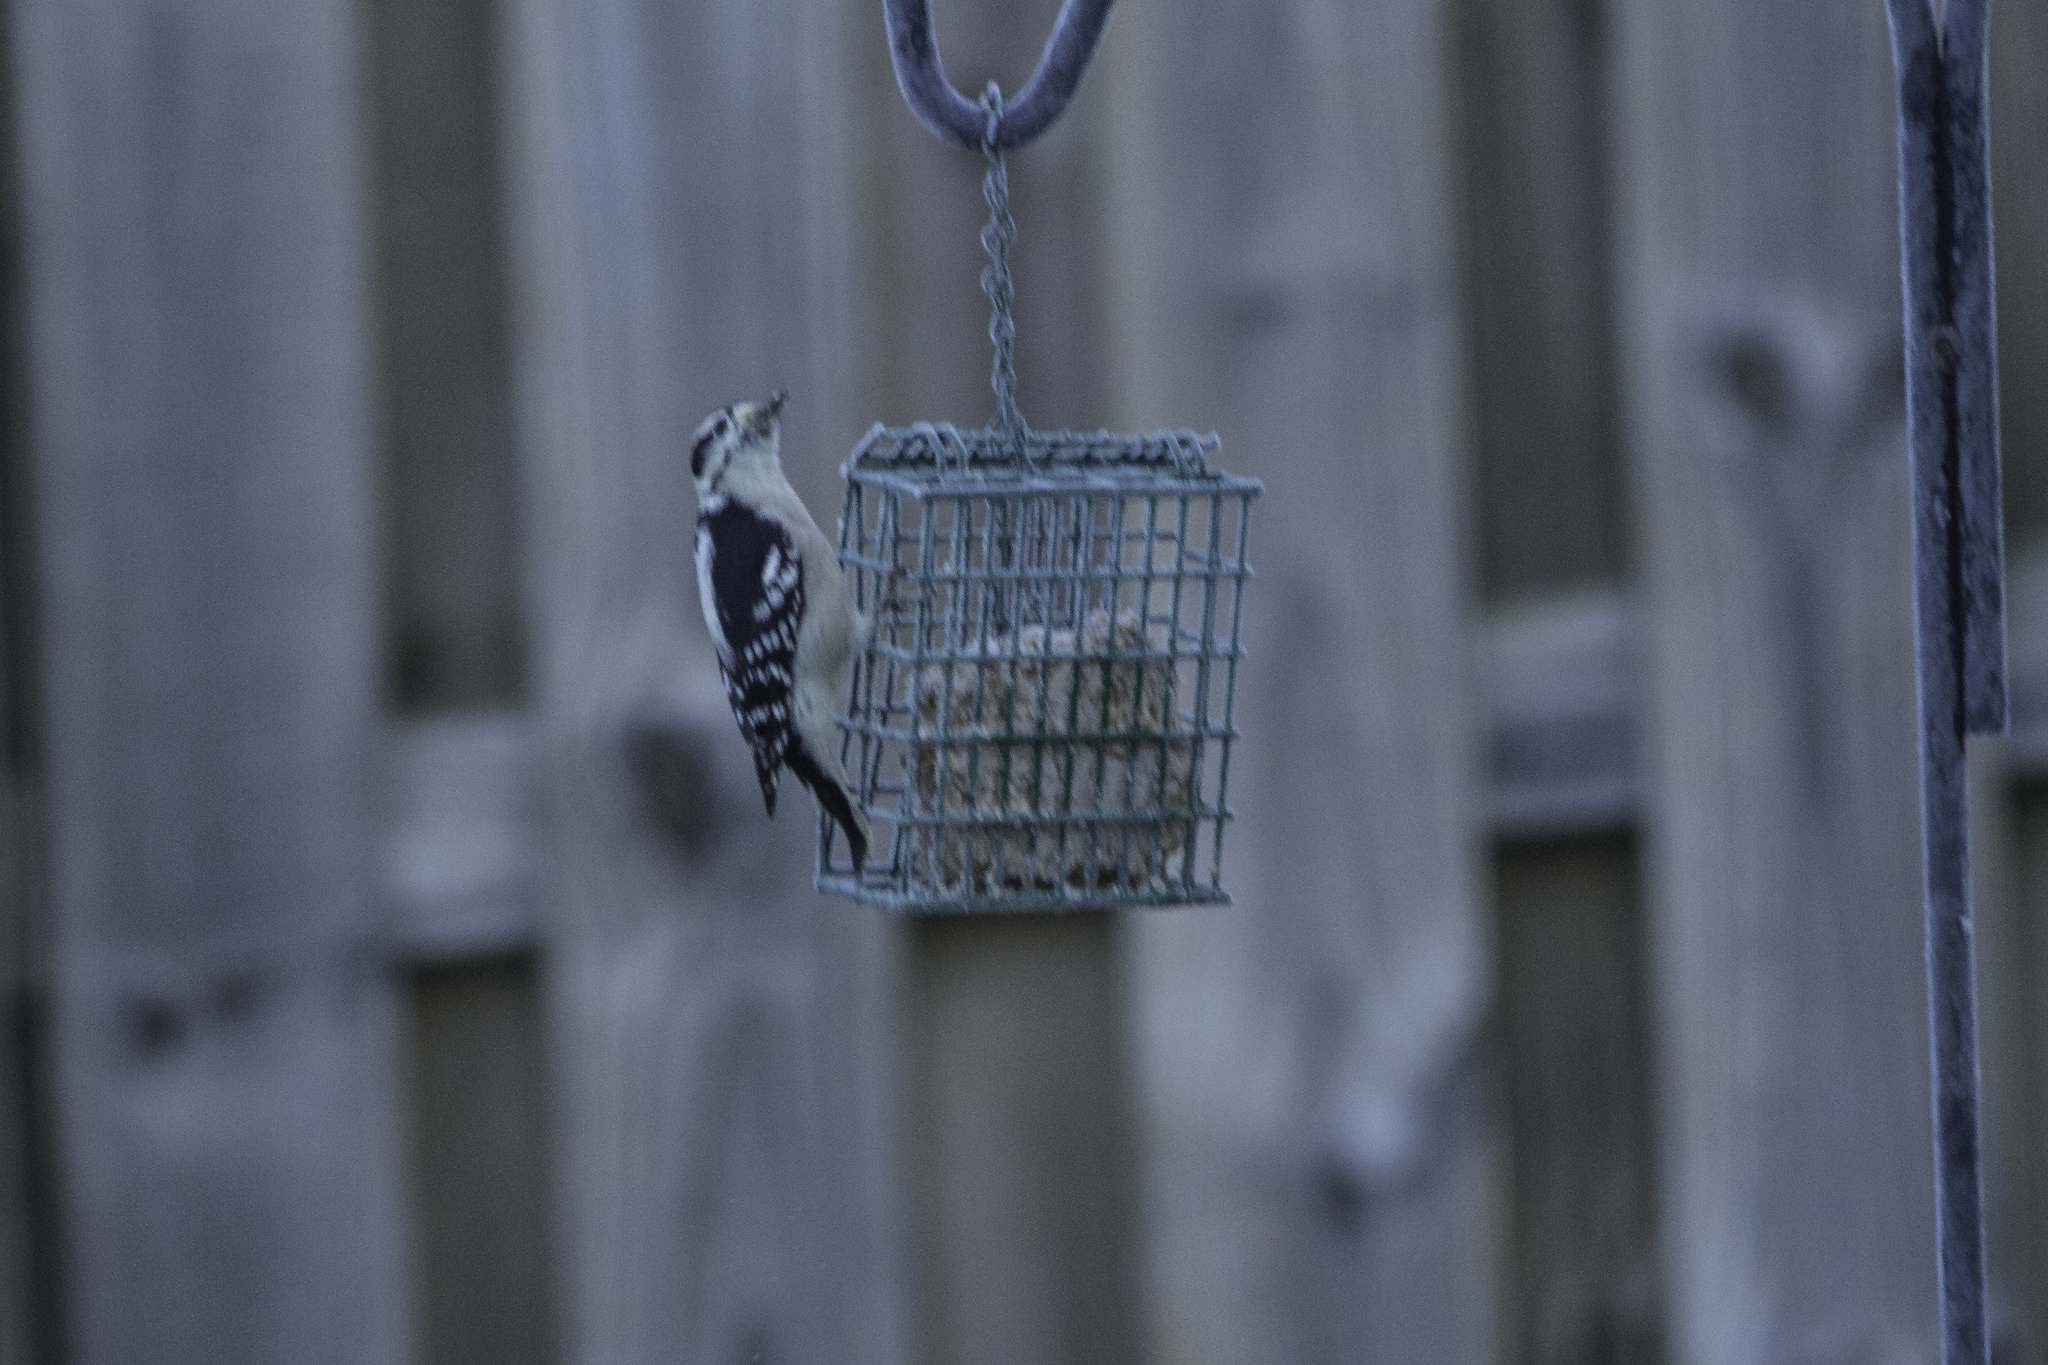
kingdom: Animalia
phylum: Chordata
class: Aves
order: Piciformes
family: Picidae
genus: Dryobates
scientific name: Dryobates pubescens
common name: Downy woodpecker
